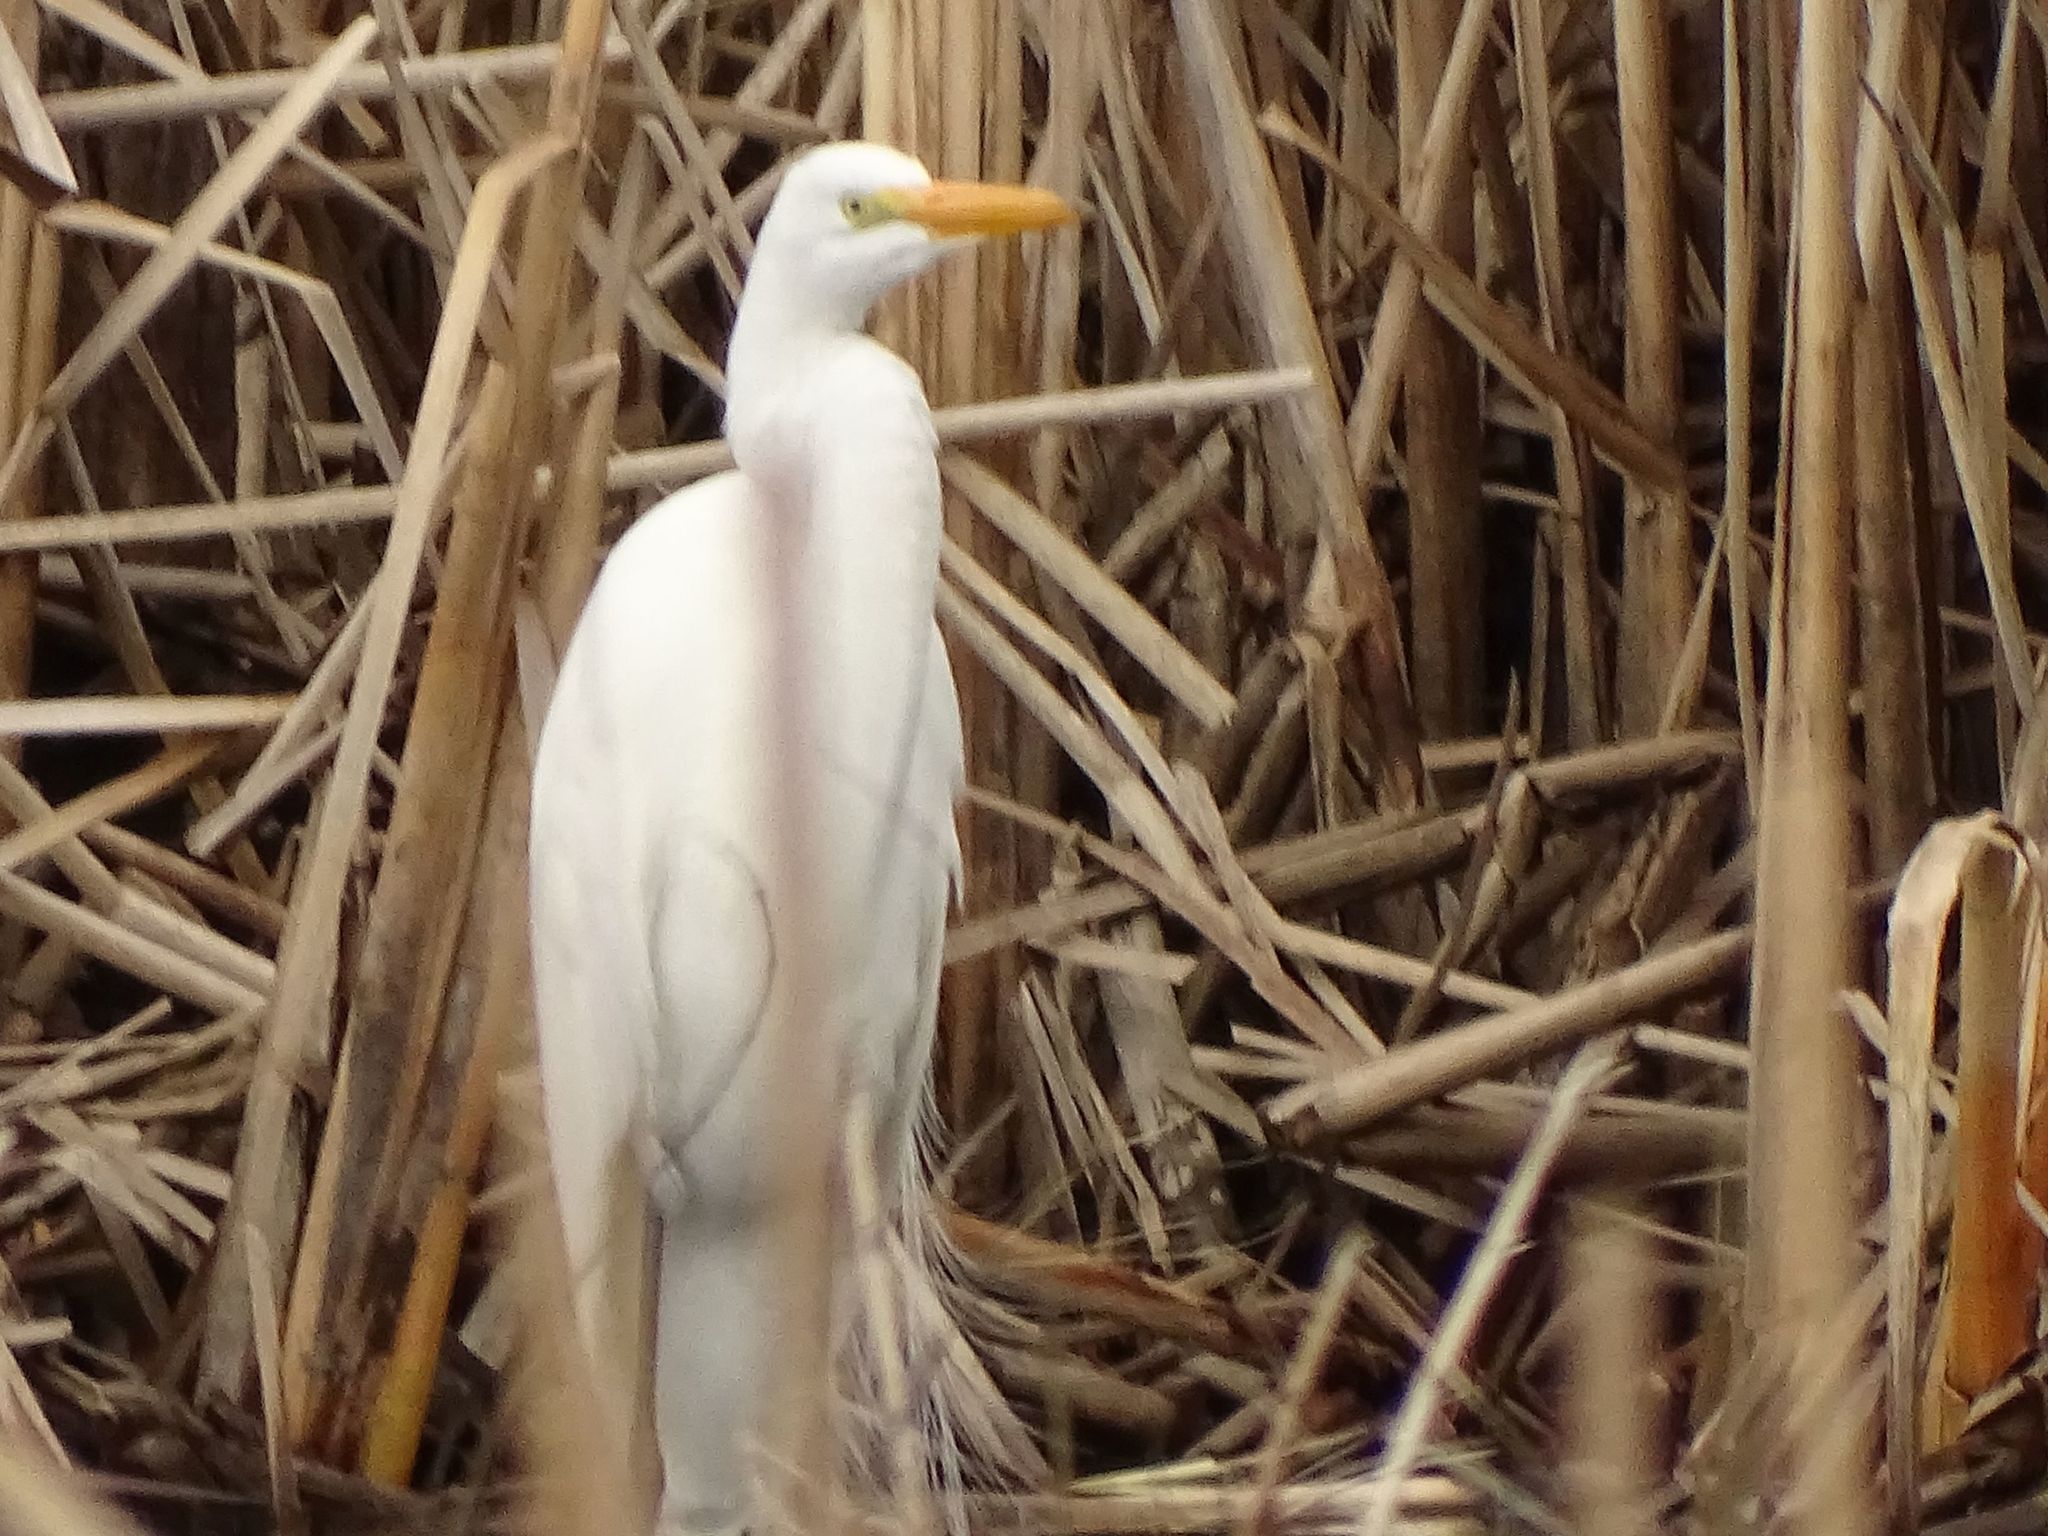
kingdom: Animalia
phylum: Chordata
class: Aves
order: Pelecaniformes
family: Ardeidae
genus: Ardea
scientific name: Ardea alba
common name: Great egret
